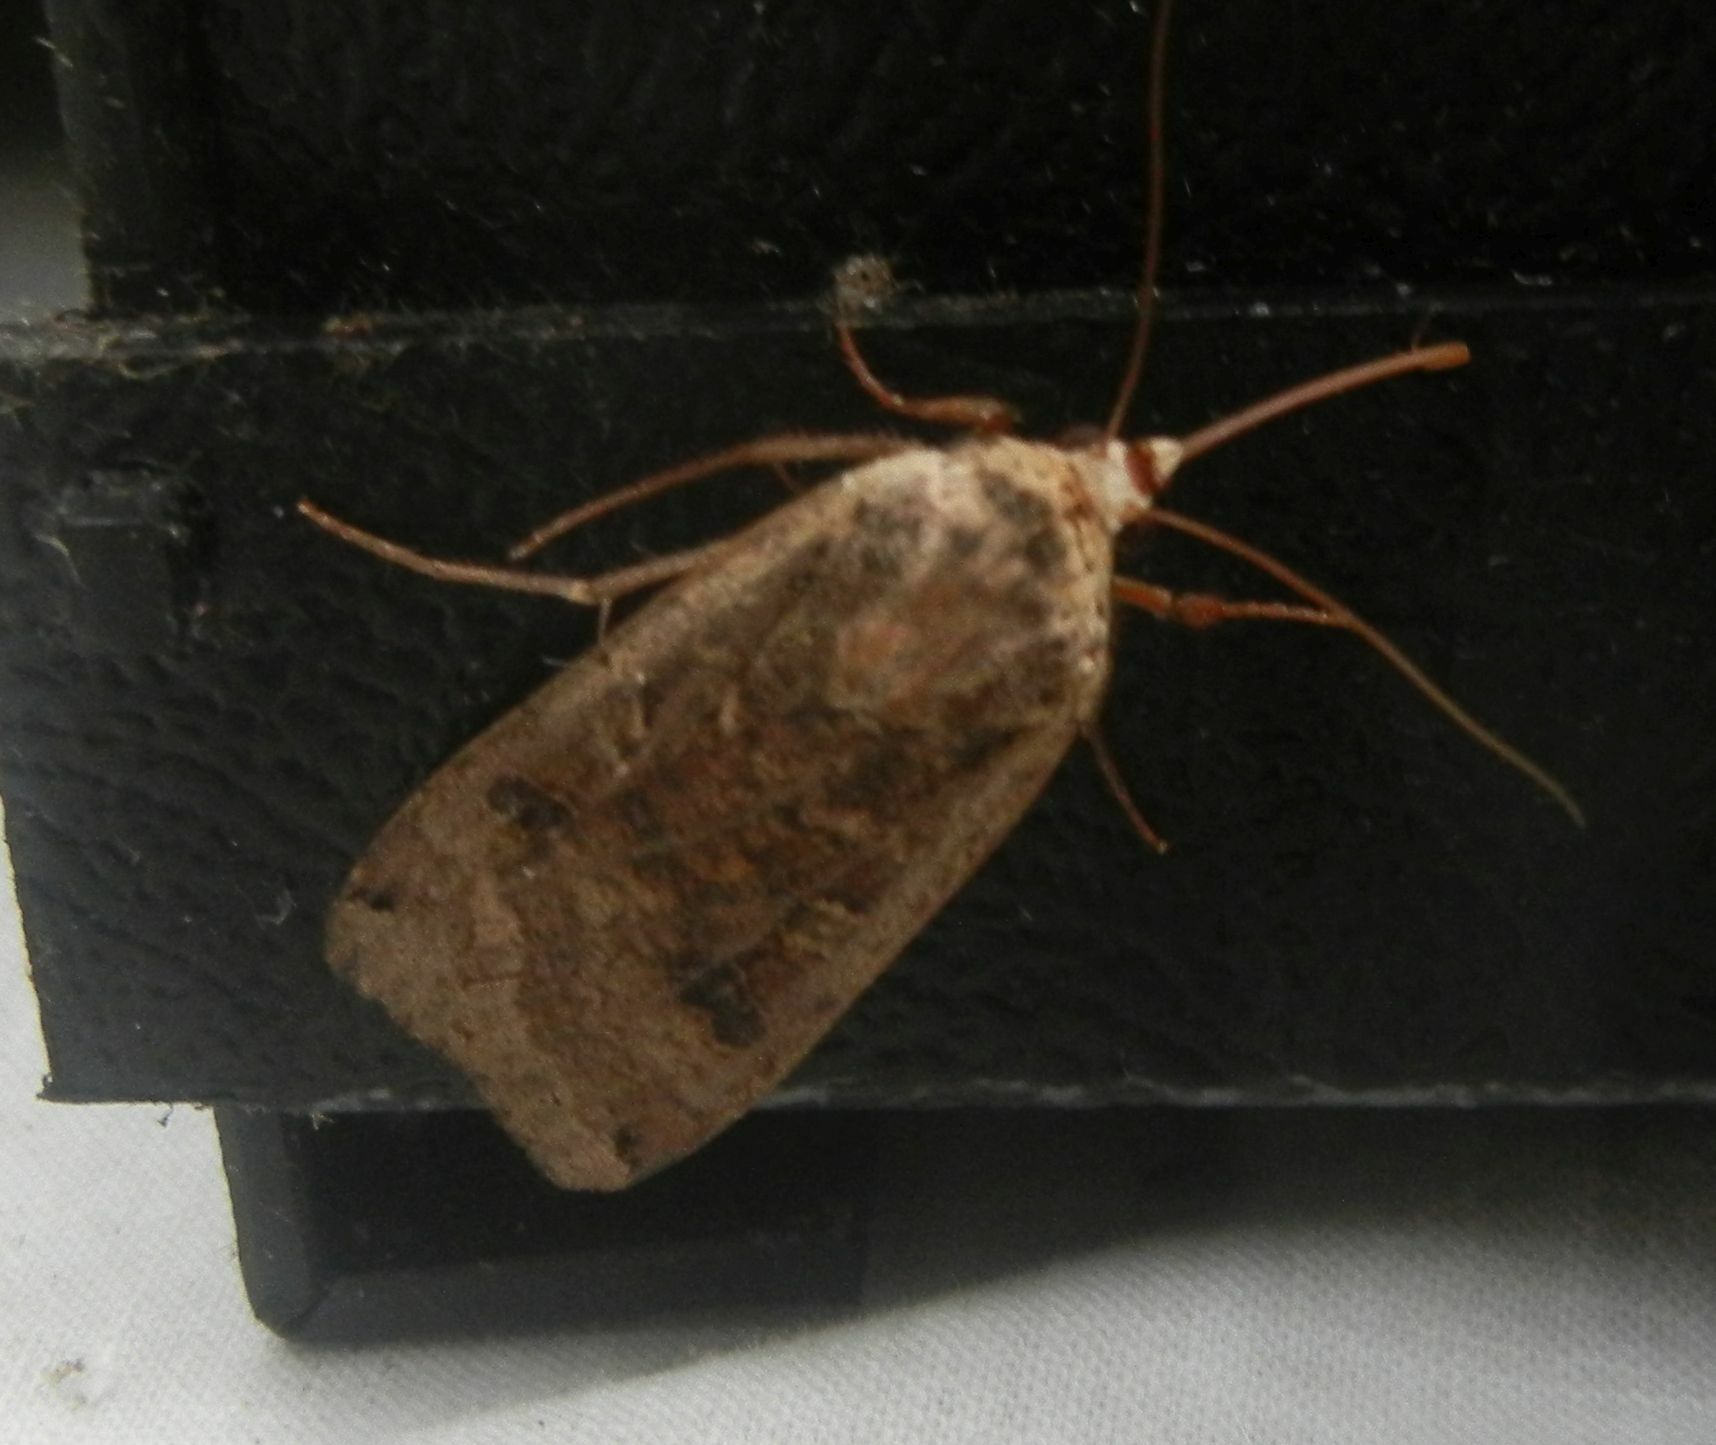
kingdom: Animalia
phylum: Arthropoda
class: Insecta
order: Lepidoptera
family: Noctuidae
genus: Noctua
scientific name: Noctua pronuba
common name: Large yellow underwing
